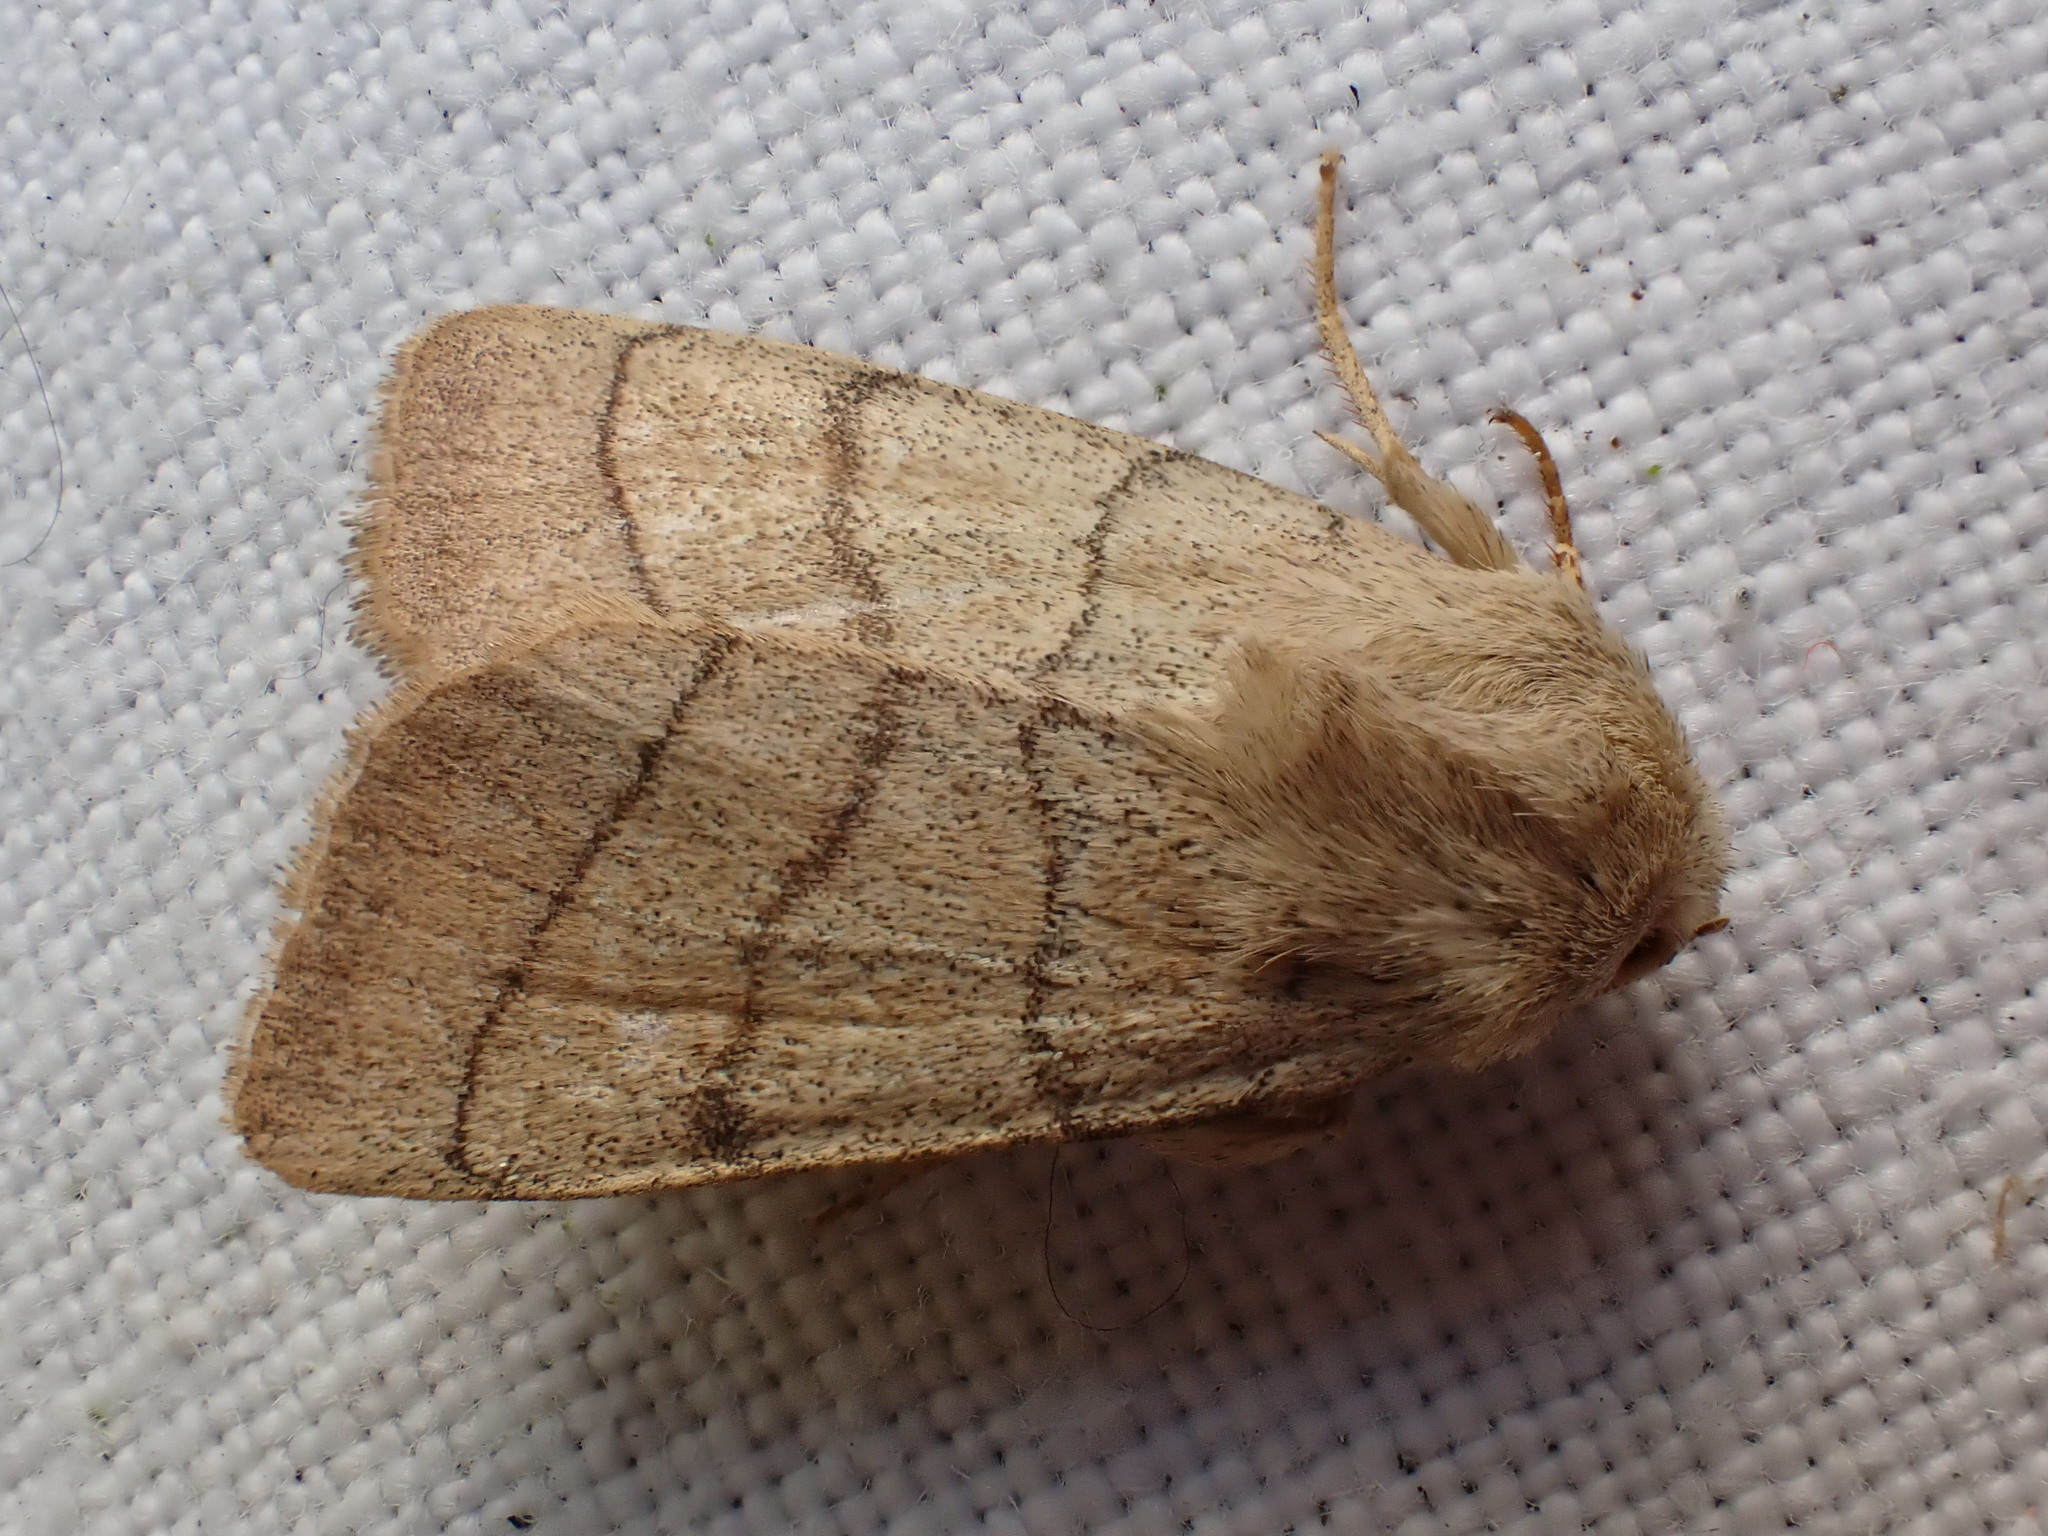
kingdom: Animalia
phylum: Arthropoda
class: Insecta
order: Lepidoptera
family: Noctuidae
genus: Charanyca
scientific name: Charanyca trigrammica
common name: Treble lines
